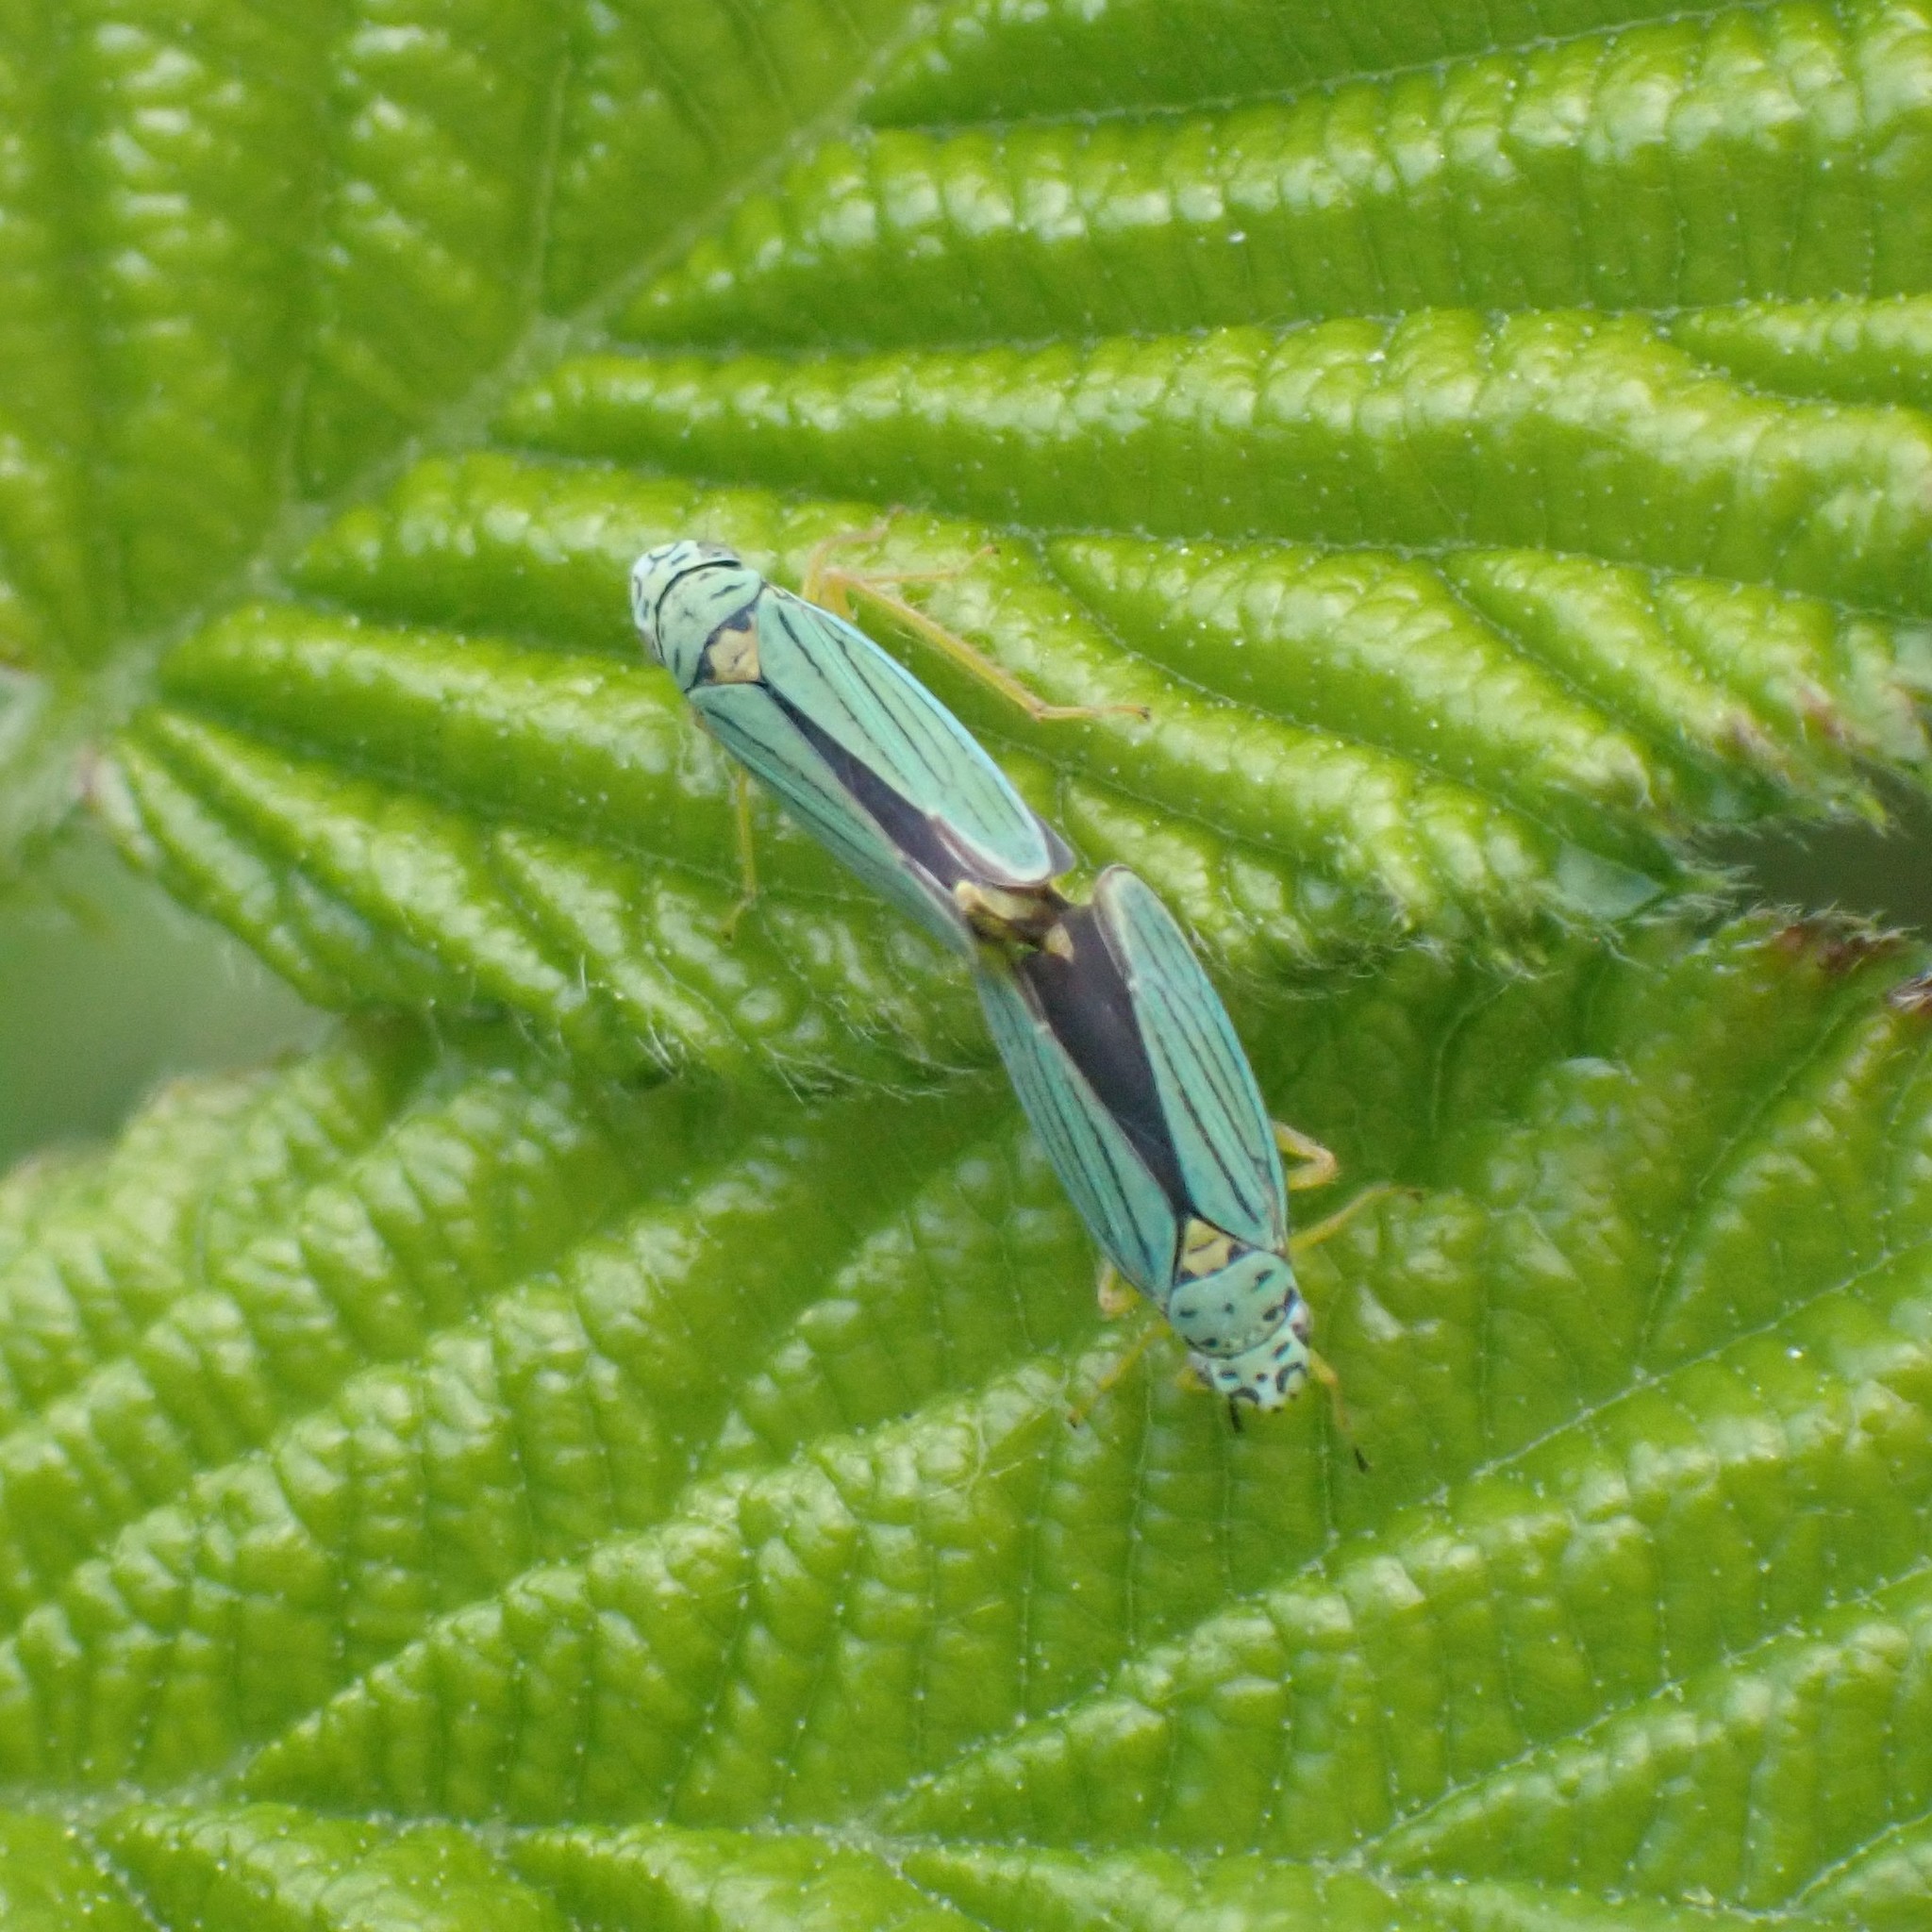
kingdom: Animalia
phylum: Arthropoda
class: Insecta
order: Hemiptera
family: Cicadellidae
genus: Graphocephala
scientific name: Graphocephala atropunctata
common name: Blue-green sharpshooter
